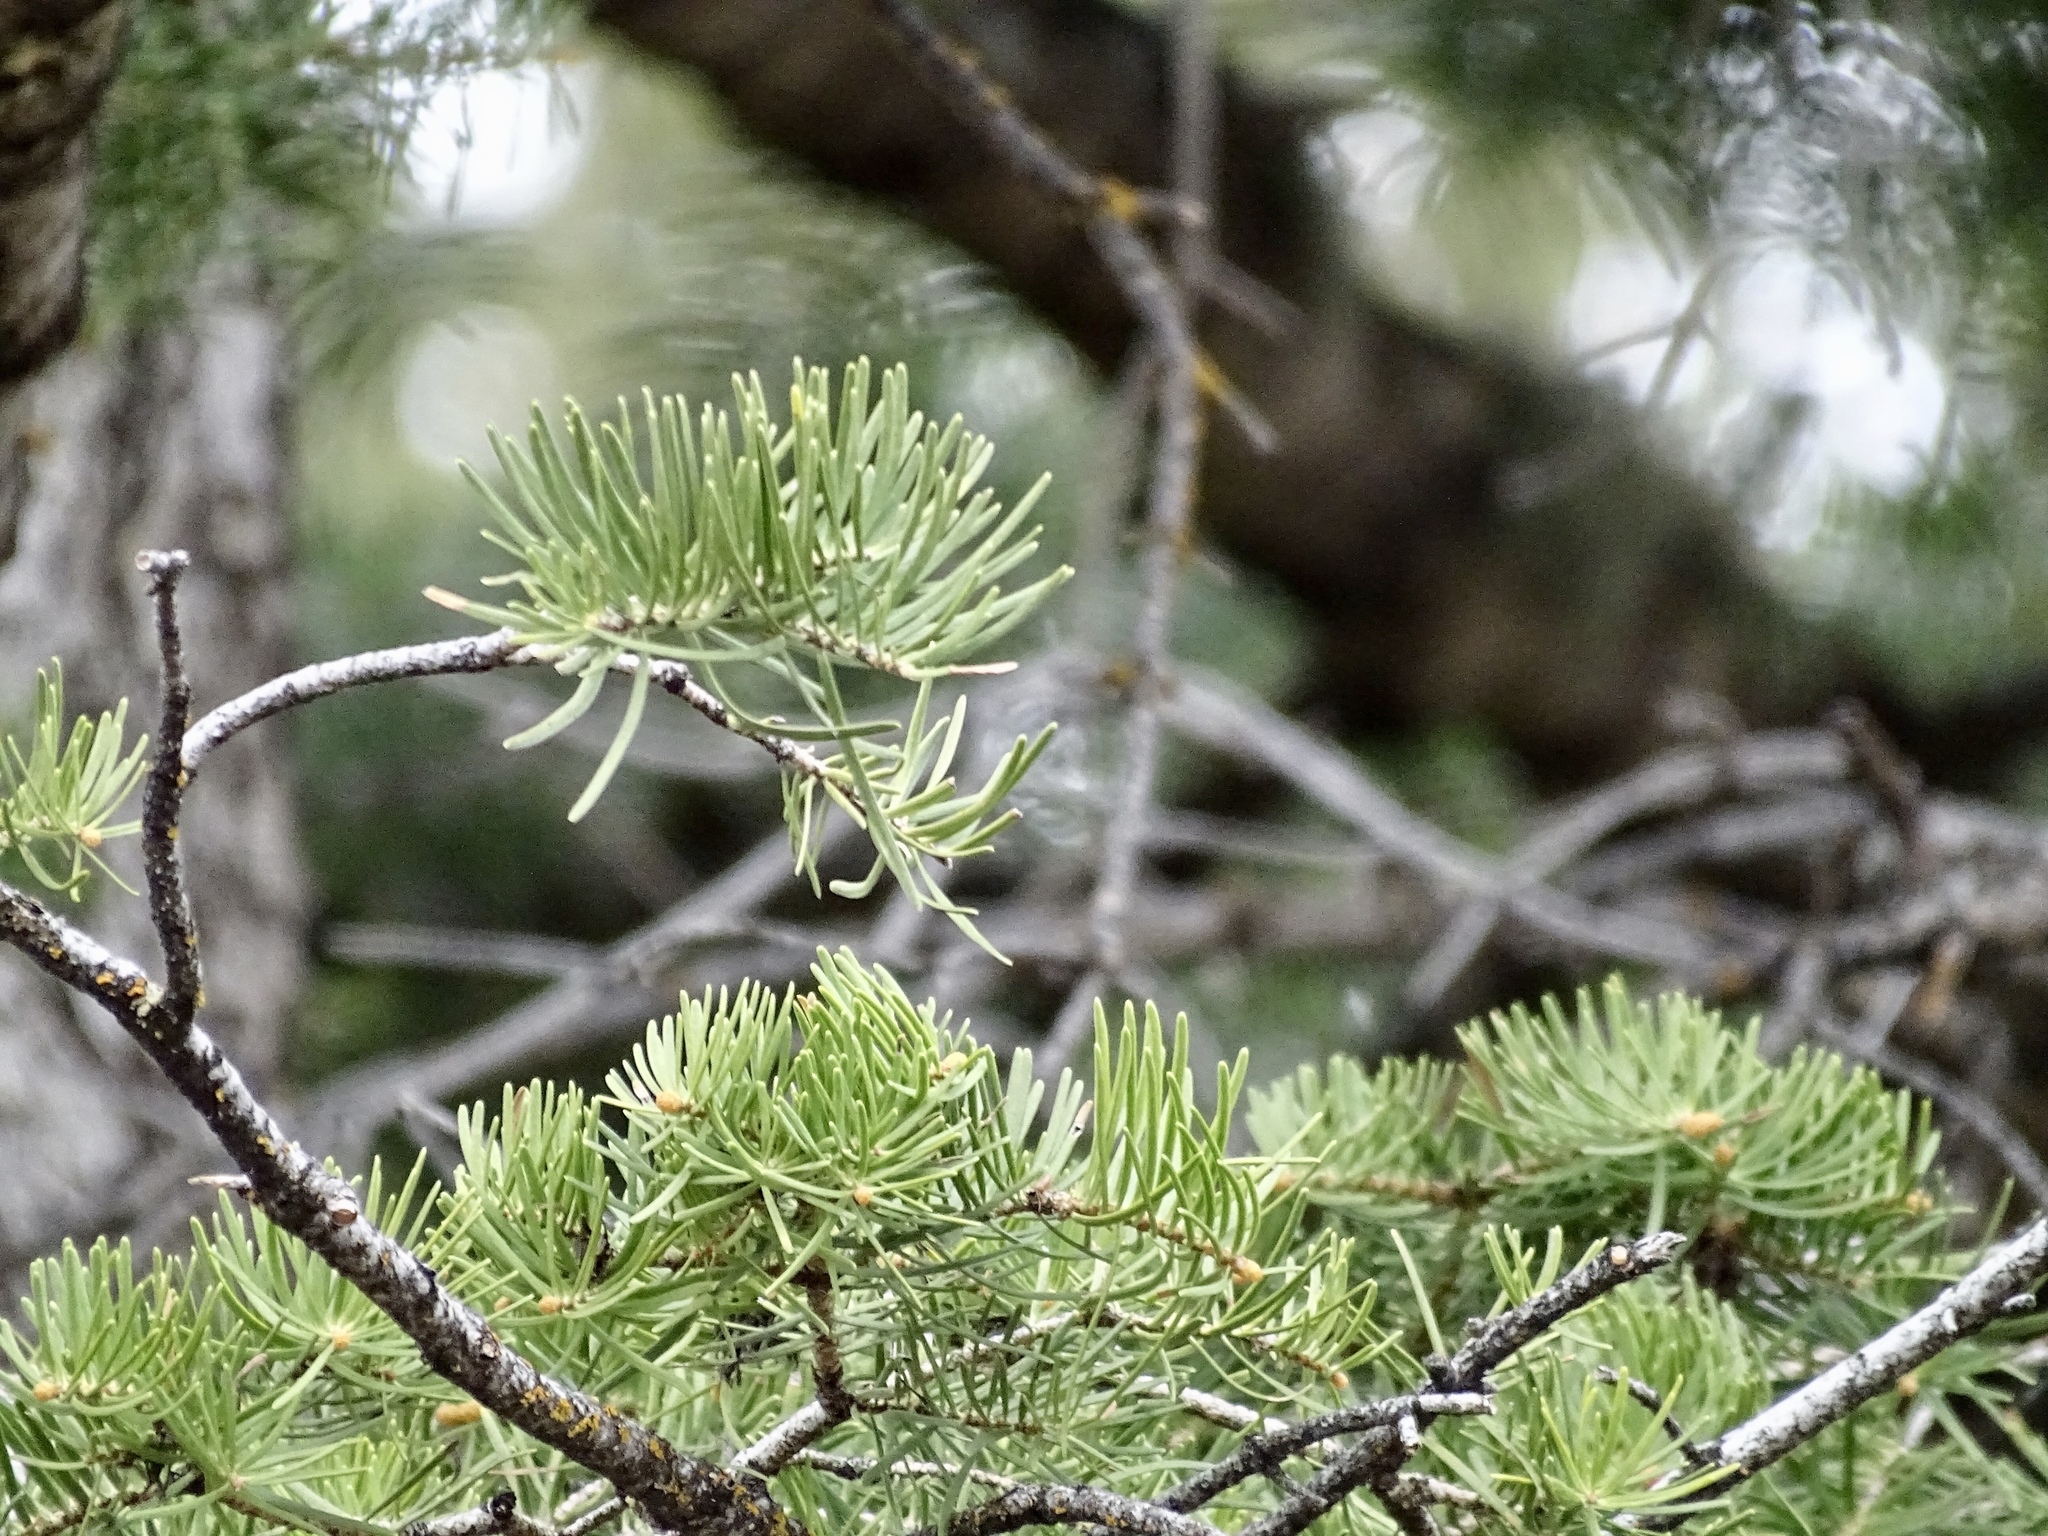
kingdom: Plantae
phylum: Tracheophyta
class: Pinopsida
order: Pinales
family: Pinaceae
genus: Abies
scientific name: Abies concolor
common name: Colorado fir
